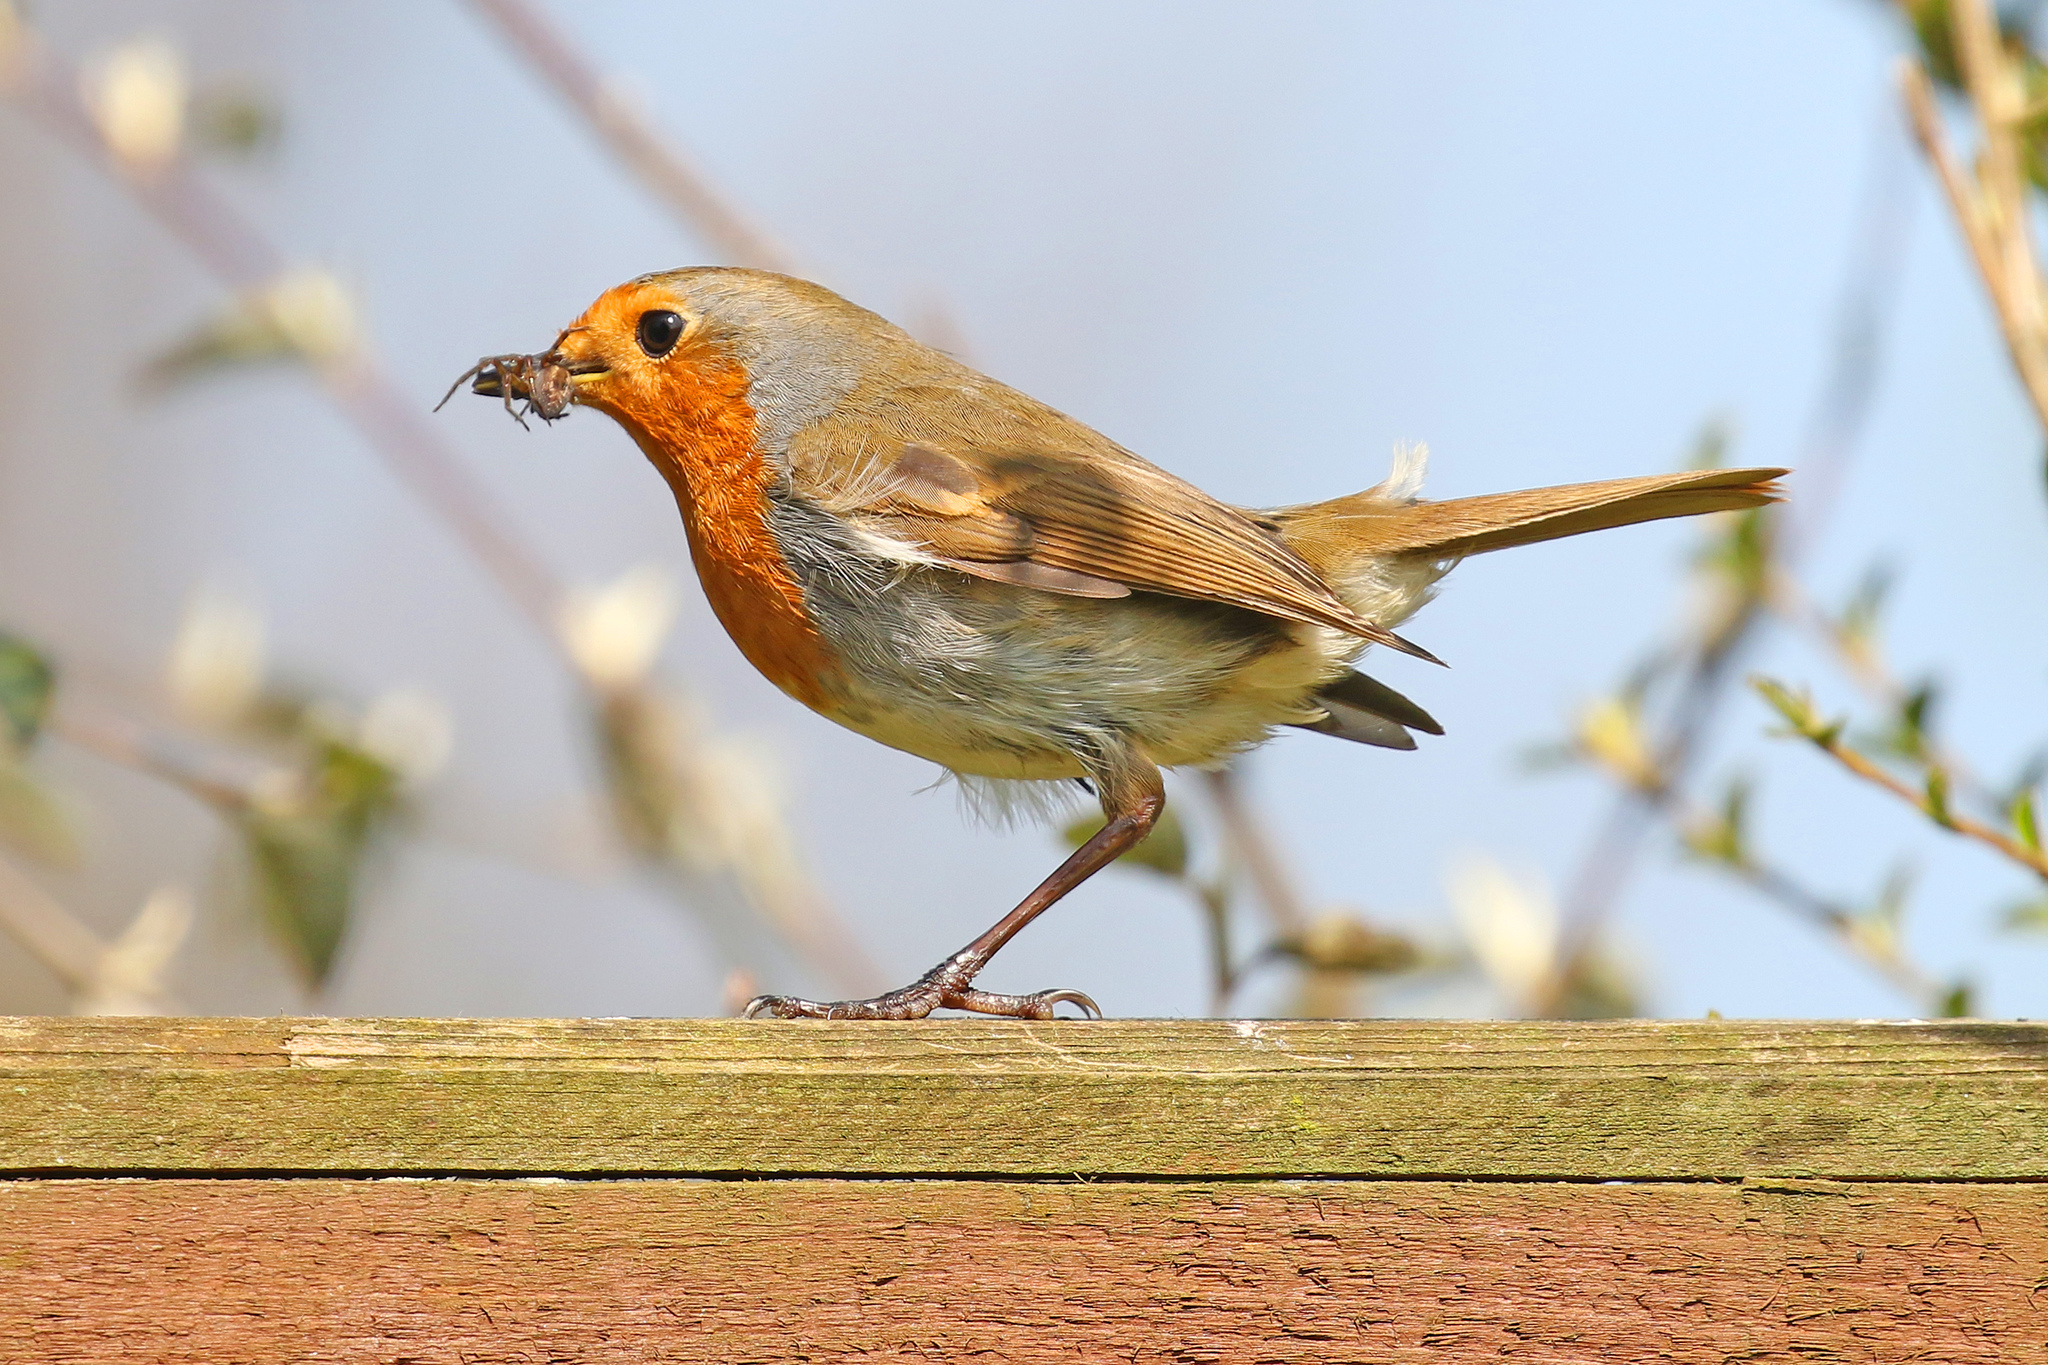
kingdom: Animalia
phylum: Chordata
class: Aves
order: Passeriformes
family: Muscicapidae
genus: Erithacus
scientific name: Erithacus rubecula
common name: European robin
